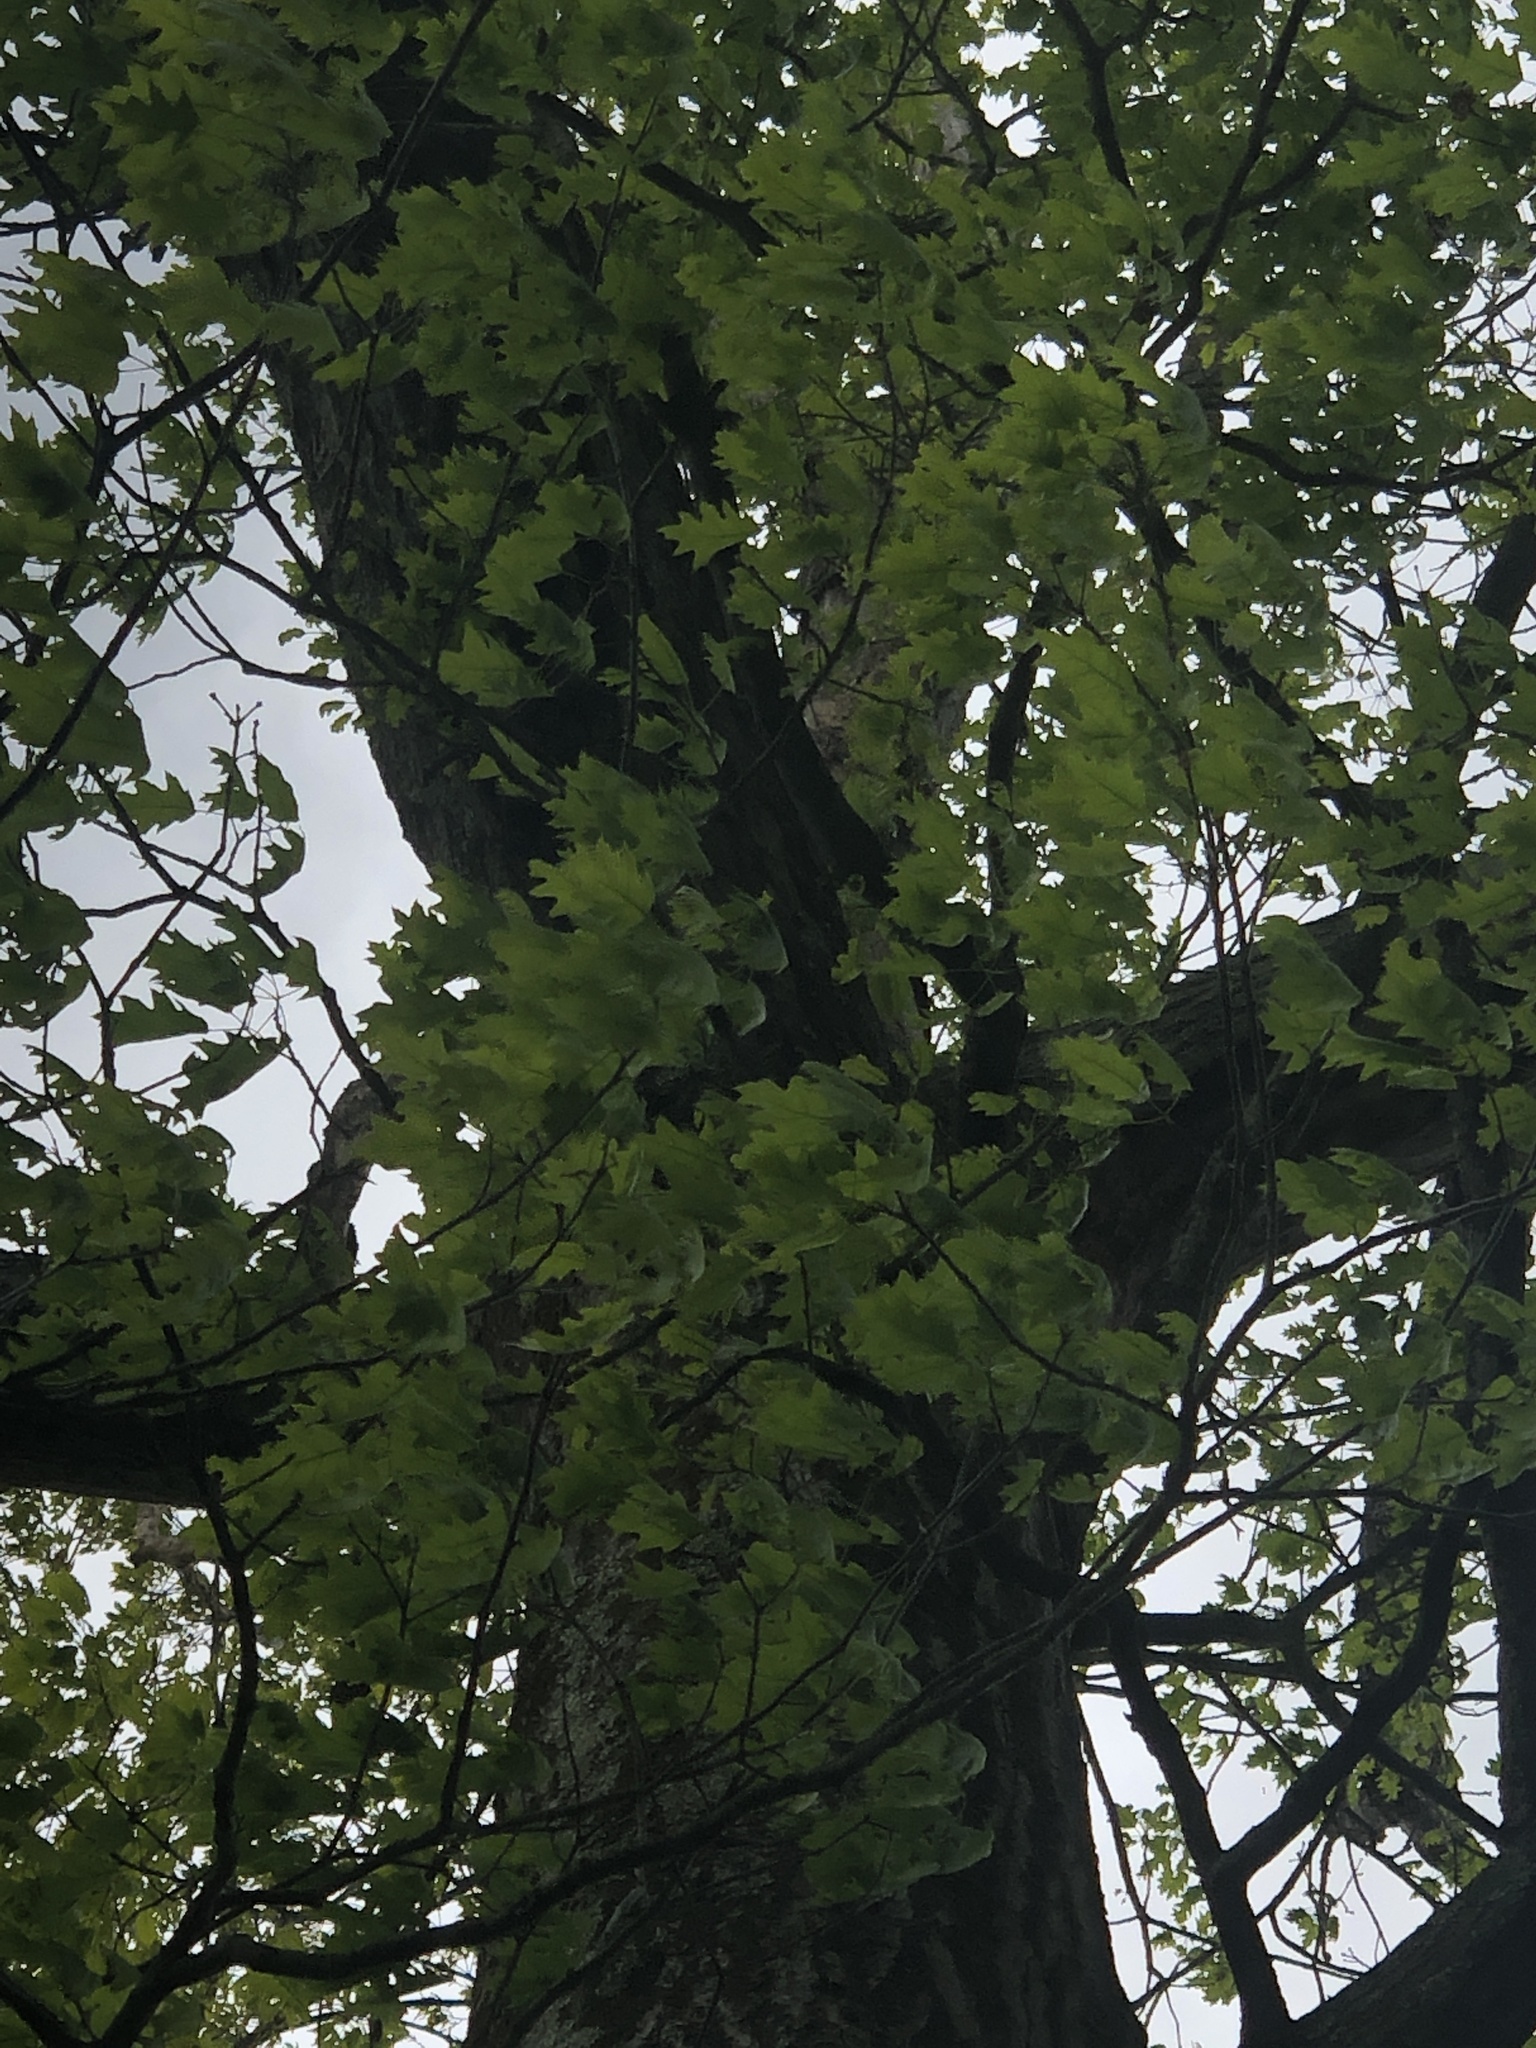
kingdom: Plantae
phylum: Tracheophyta
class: Magnoliopsida
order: Fagales
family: Fagaceae
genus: Quercus
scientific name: Quercus rubra
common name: Red oak
